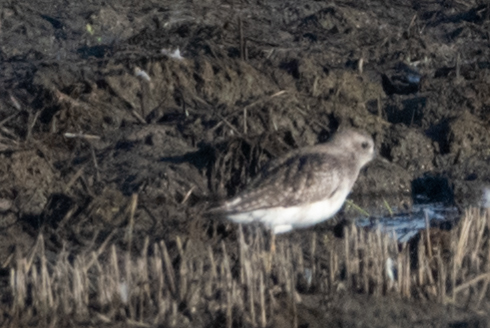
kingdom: Animalia
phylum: Chordata
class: Aves
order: Charadriiformes
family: Charadriidae
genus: Pluvialis
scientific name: Pluvialis squatarola
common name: Grey plover
